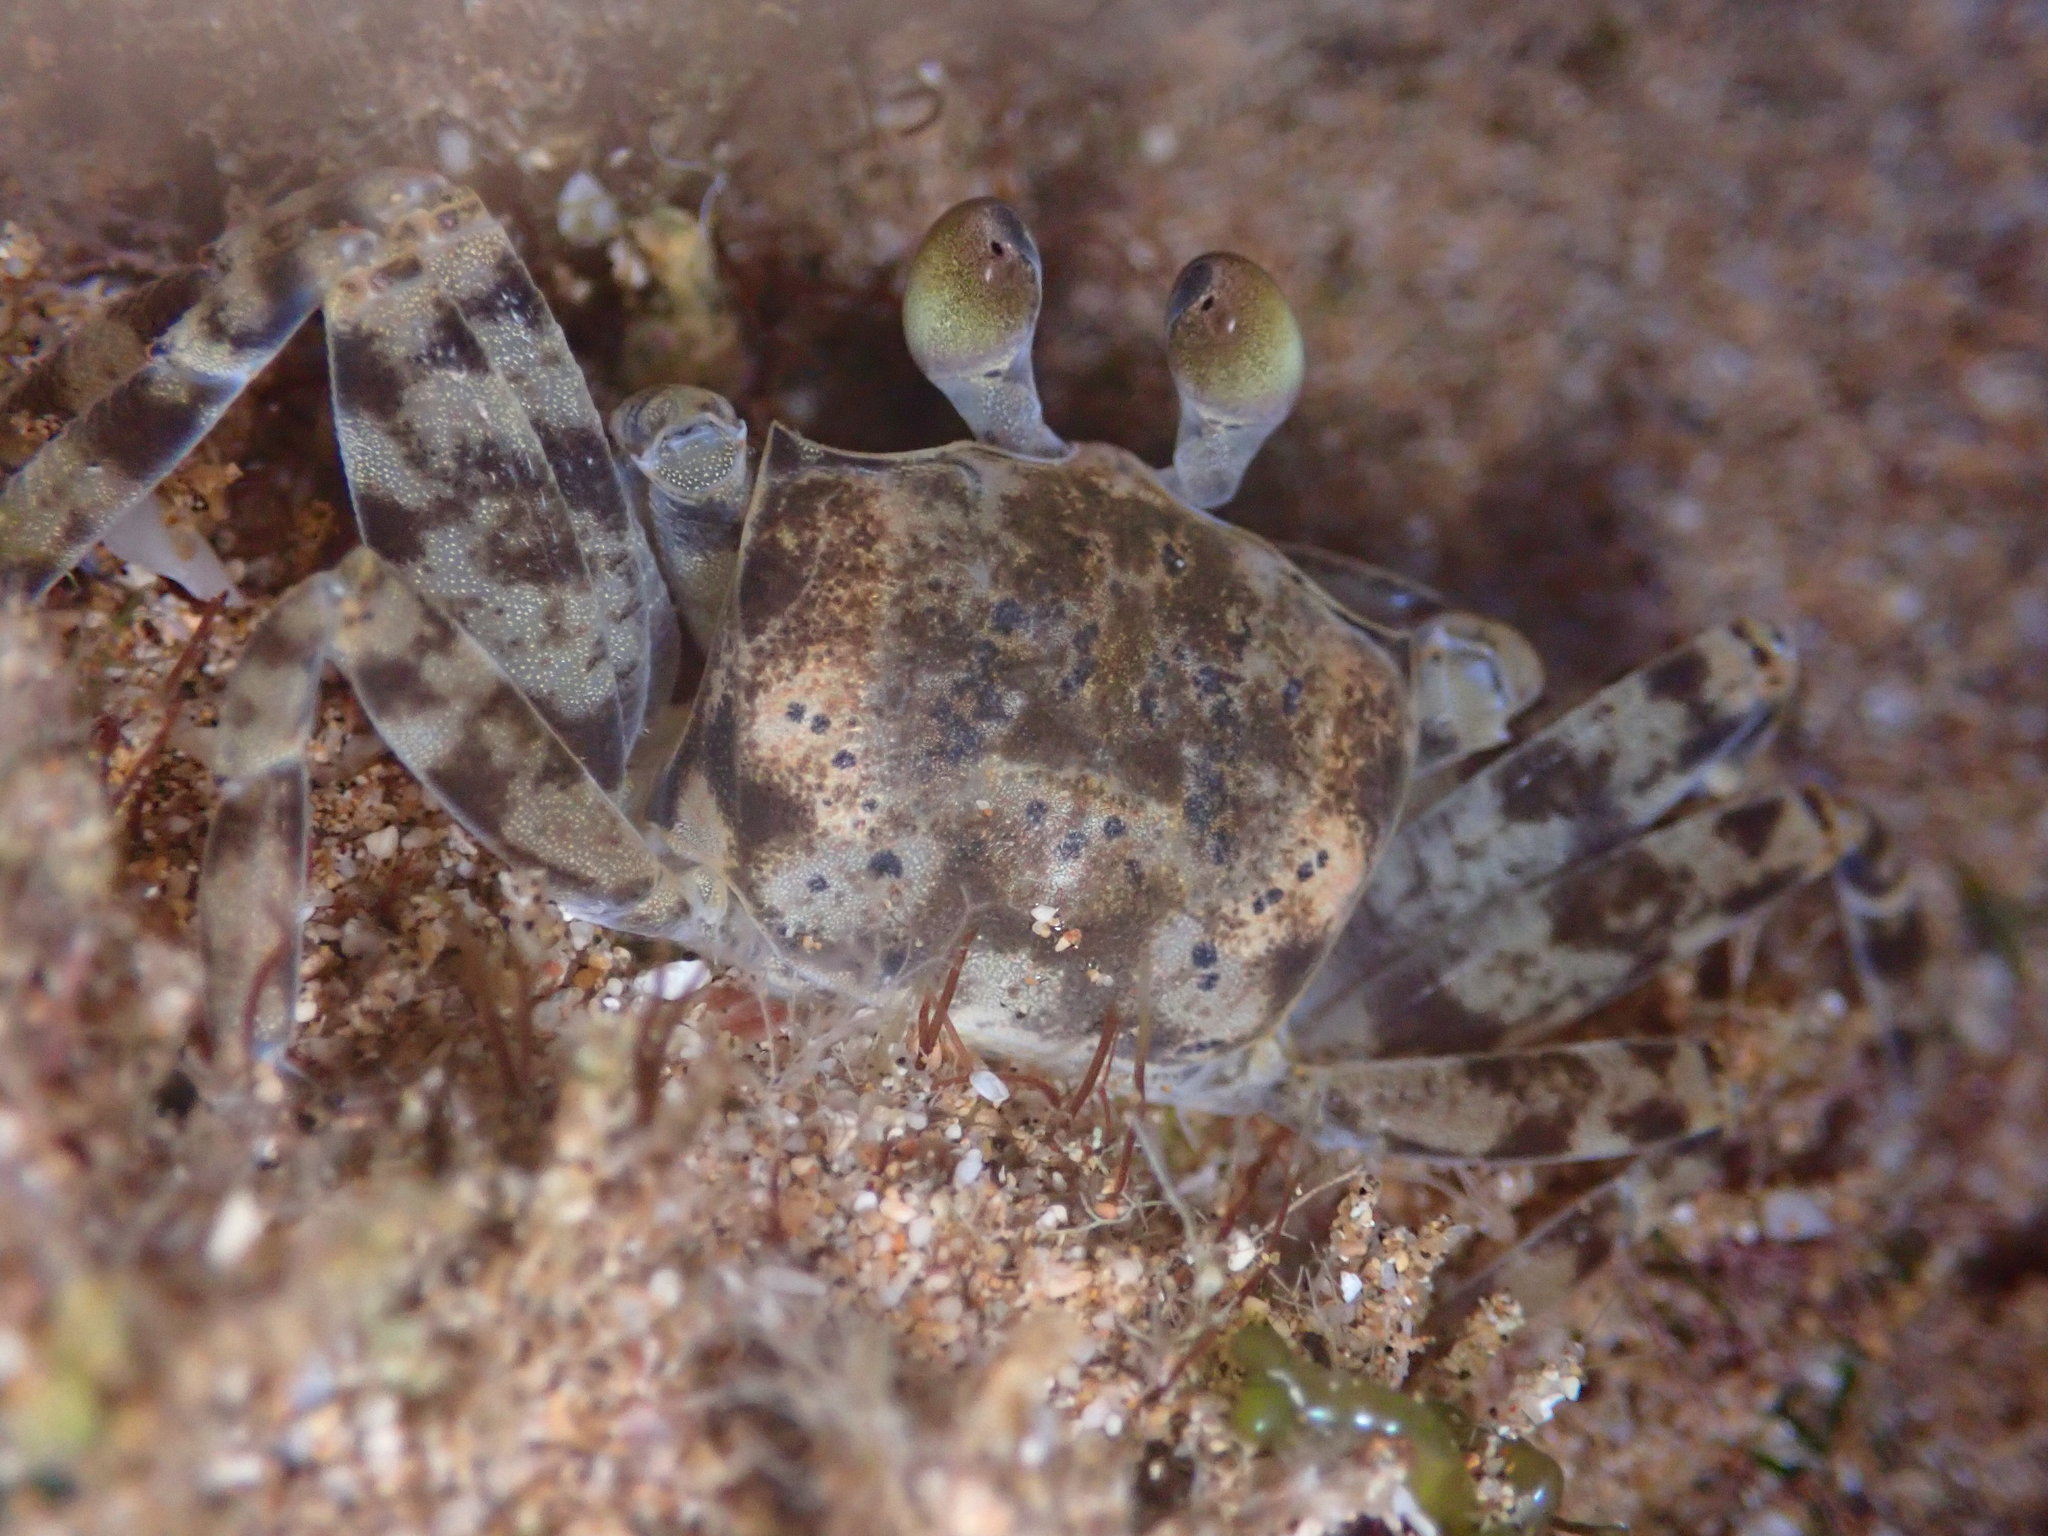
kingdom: Animalia
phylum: Arthropoda
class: Malacostraca
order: Decapoda
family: Ocypodidae
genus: Ocypode
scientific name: Ocypode pallidula
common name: Pallid ghost crab
